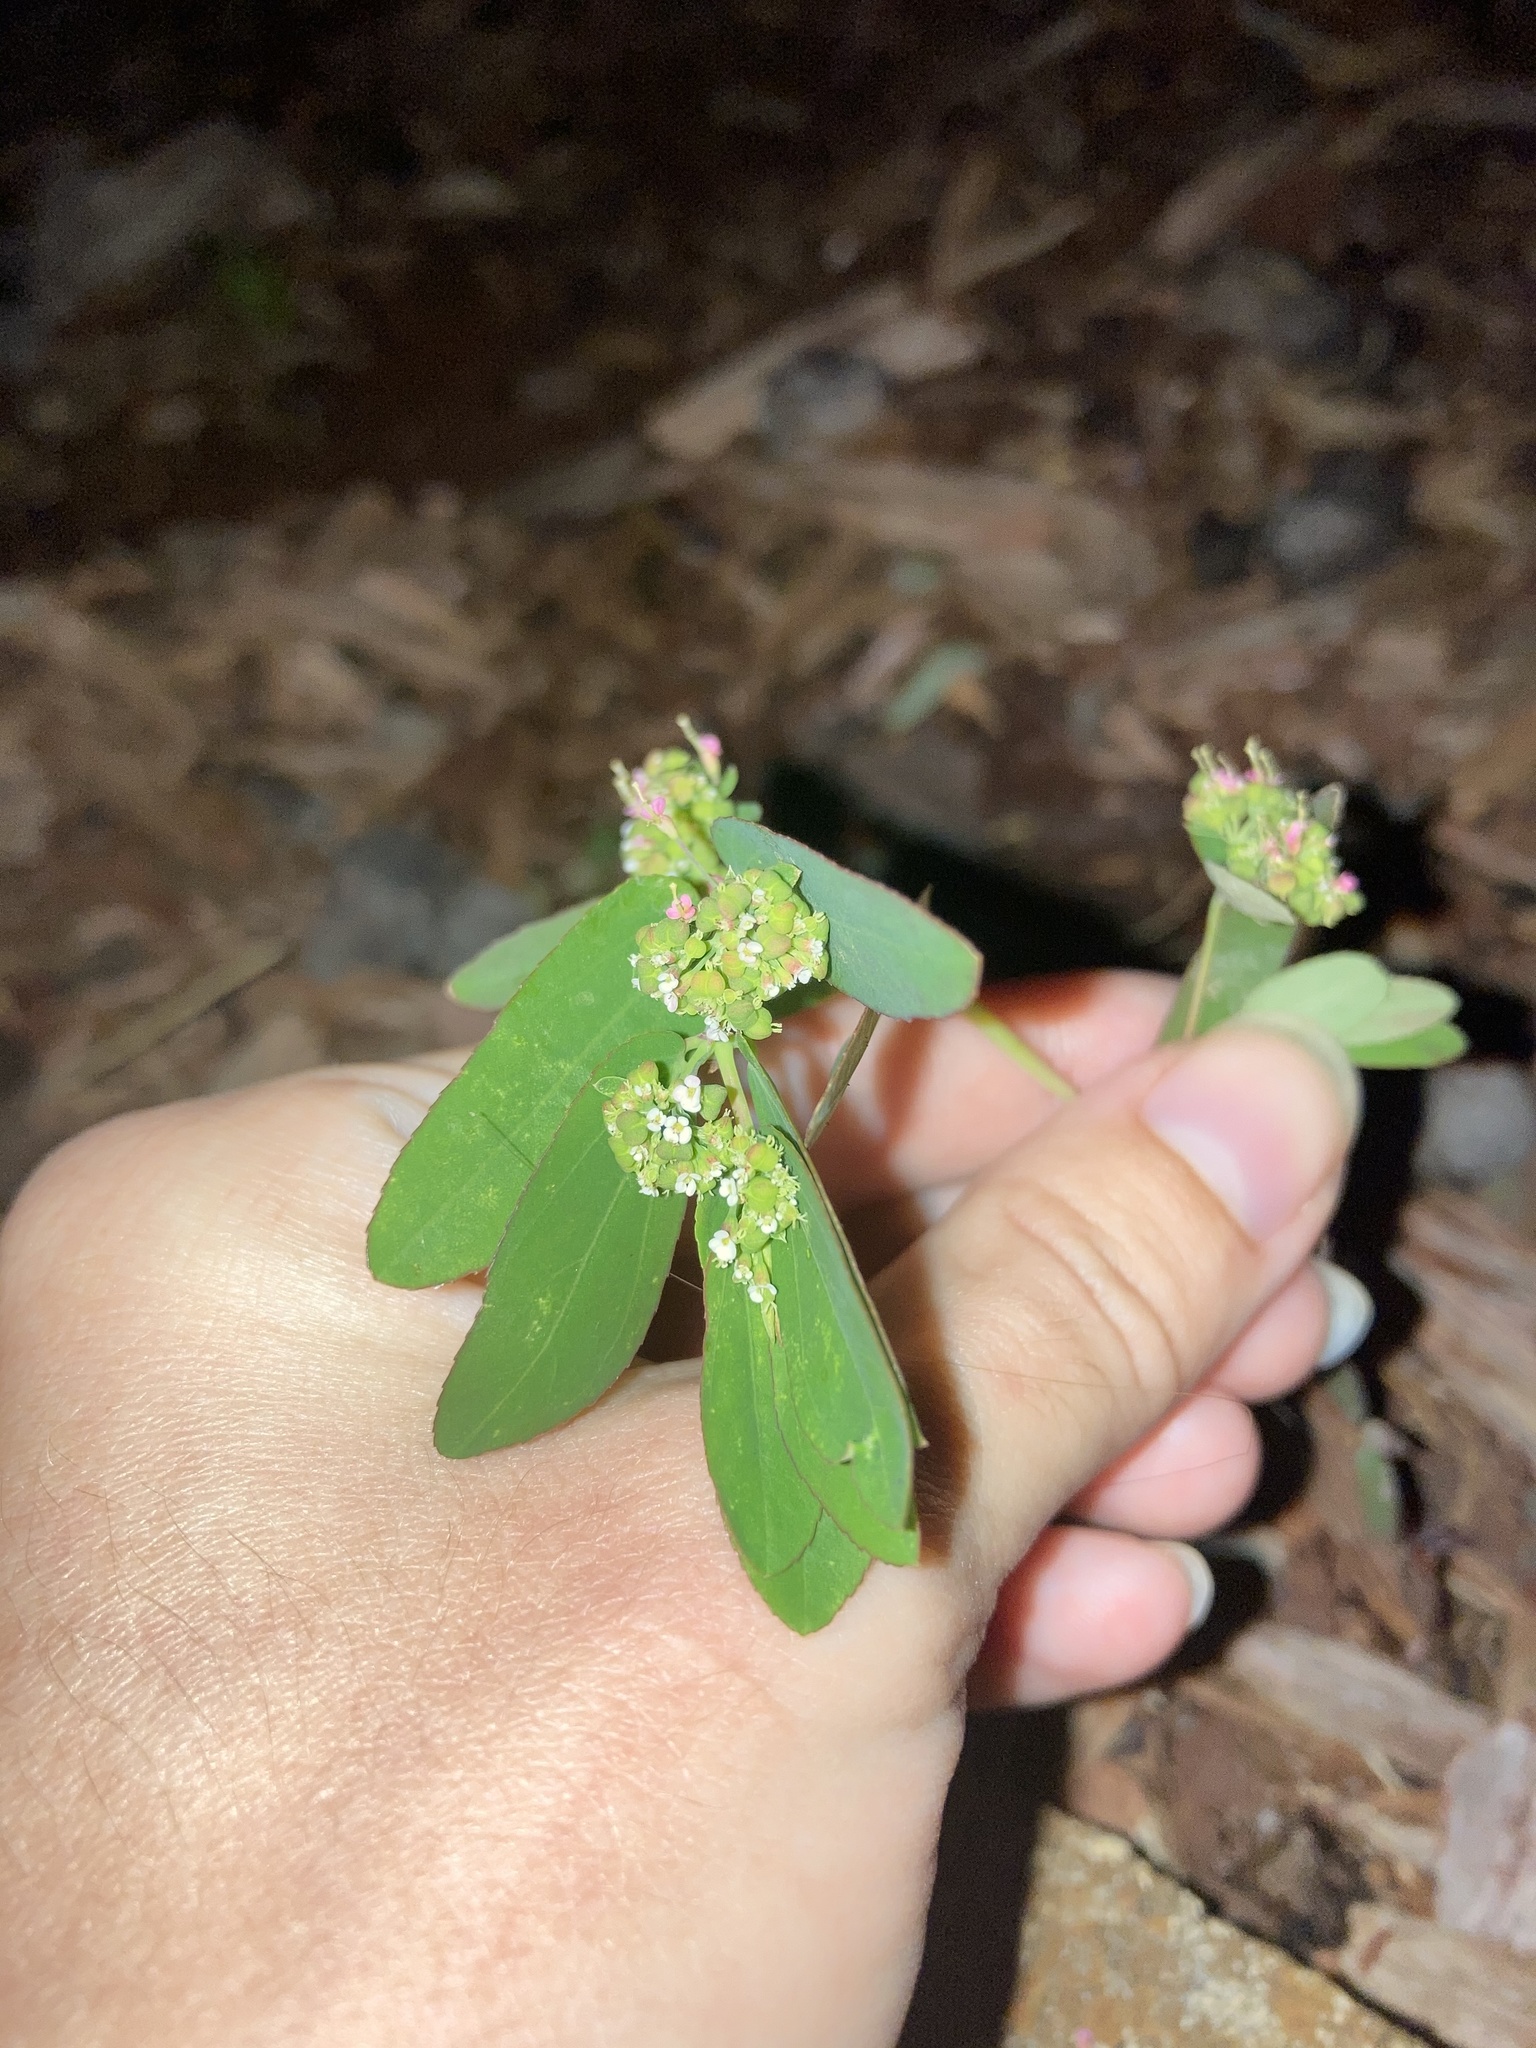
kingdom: Plantae
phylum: Tracheophyta
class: Magnoliopsida
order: Malpighiales
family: Euphorbiaceae
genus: Euphorbia
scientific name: Euphorbia hypericifolia
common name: Graceful sandmat
